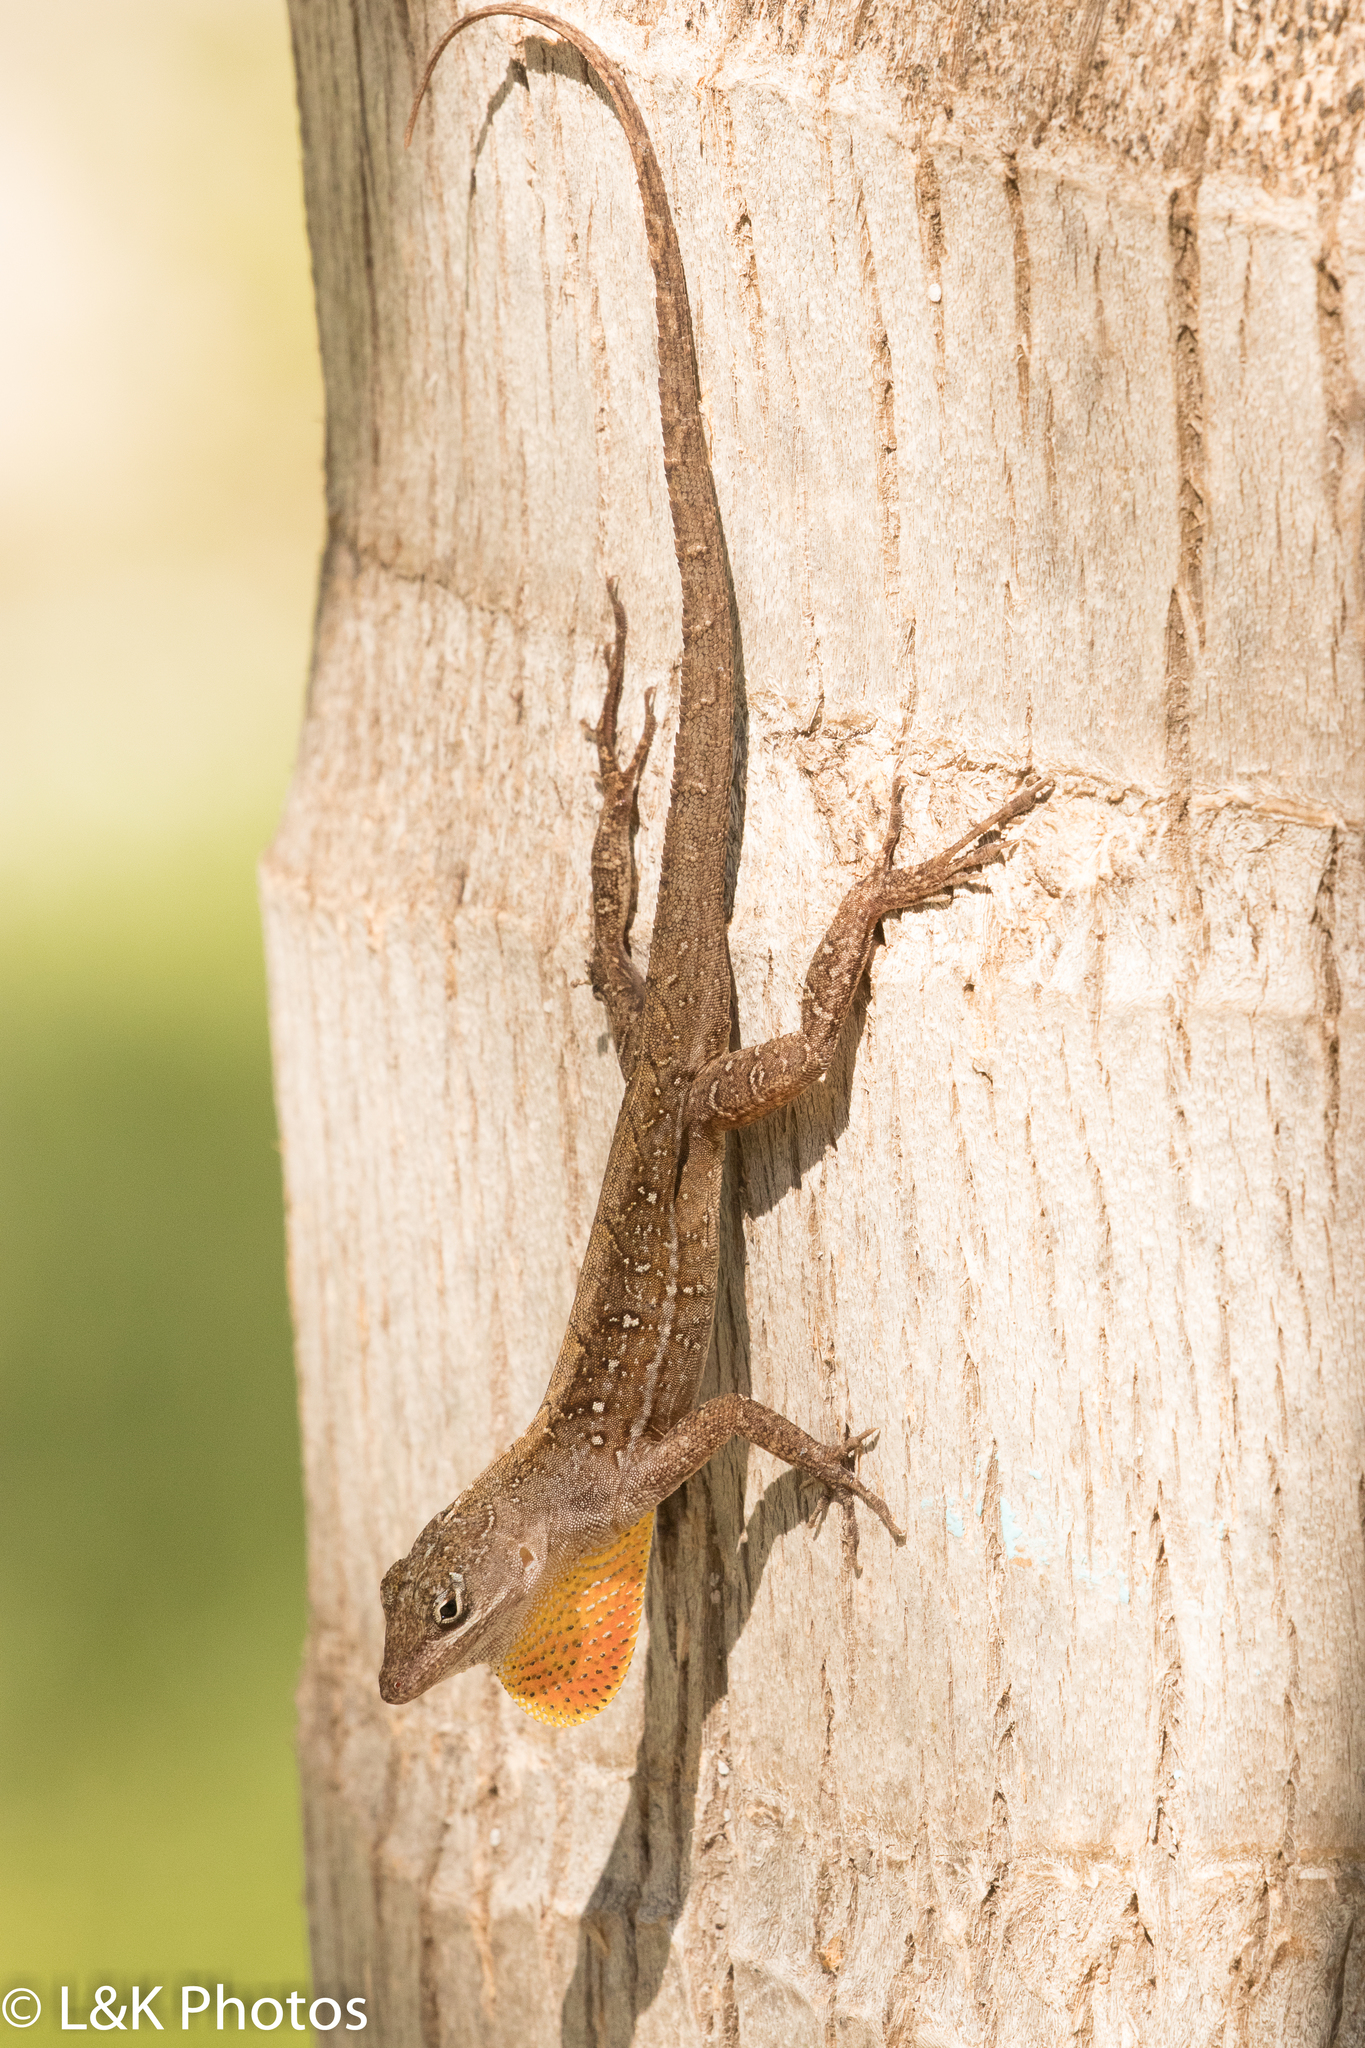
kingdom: Animalia
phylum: Chordata
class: Squamata
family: Dactyloidae
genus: Anolis
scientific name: Anolis sagrei
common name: Brown anole
